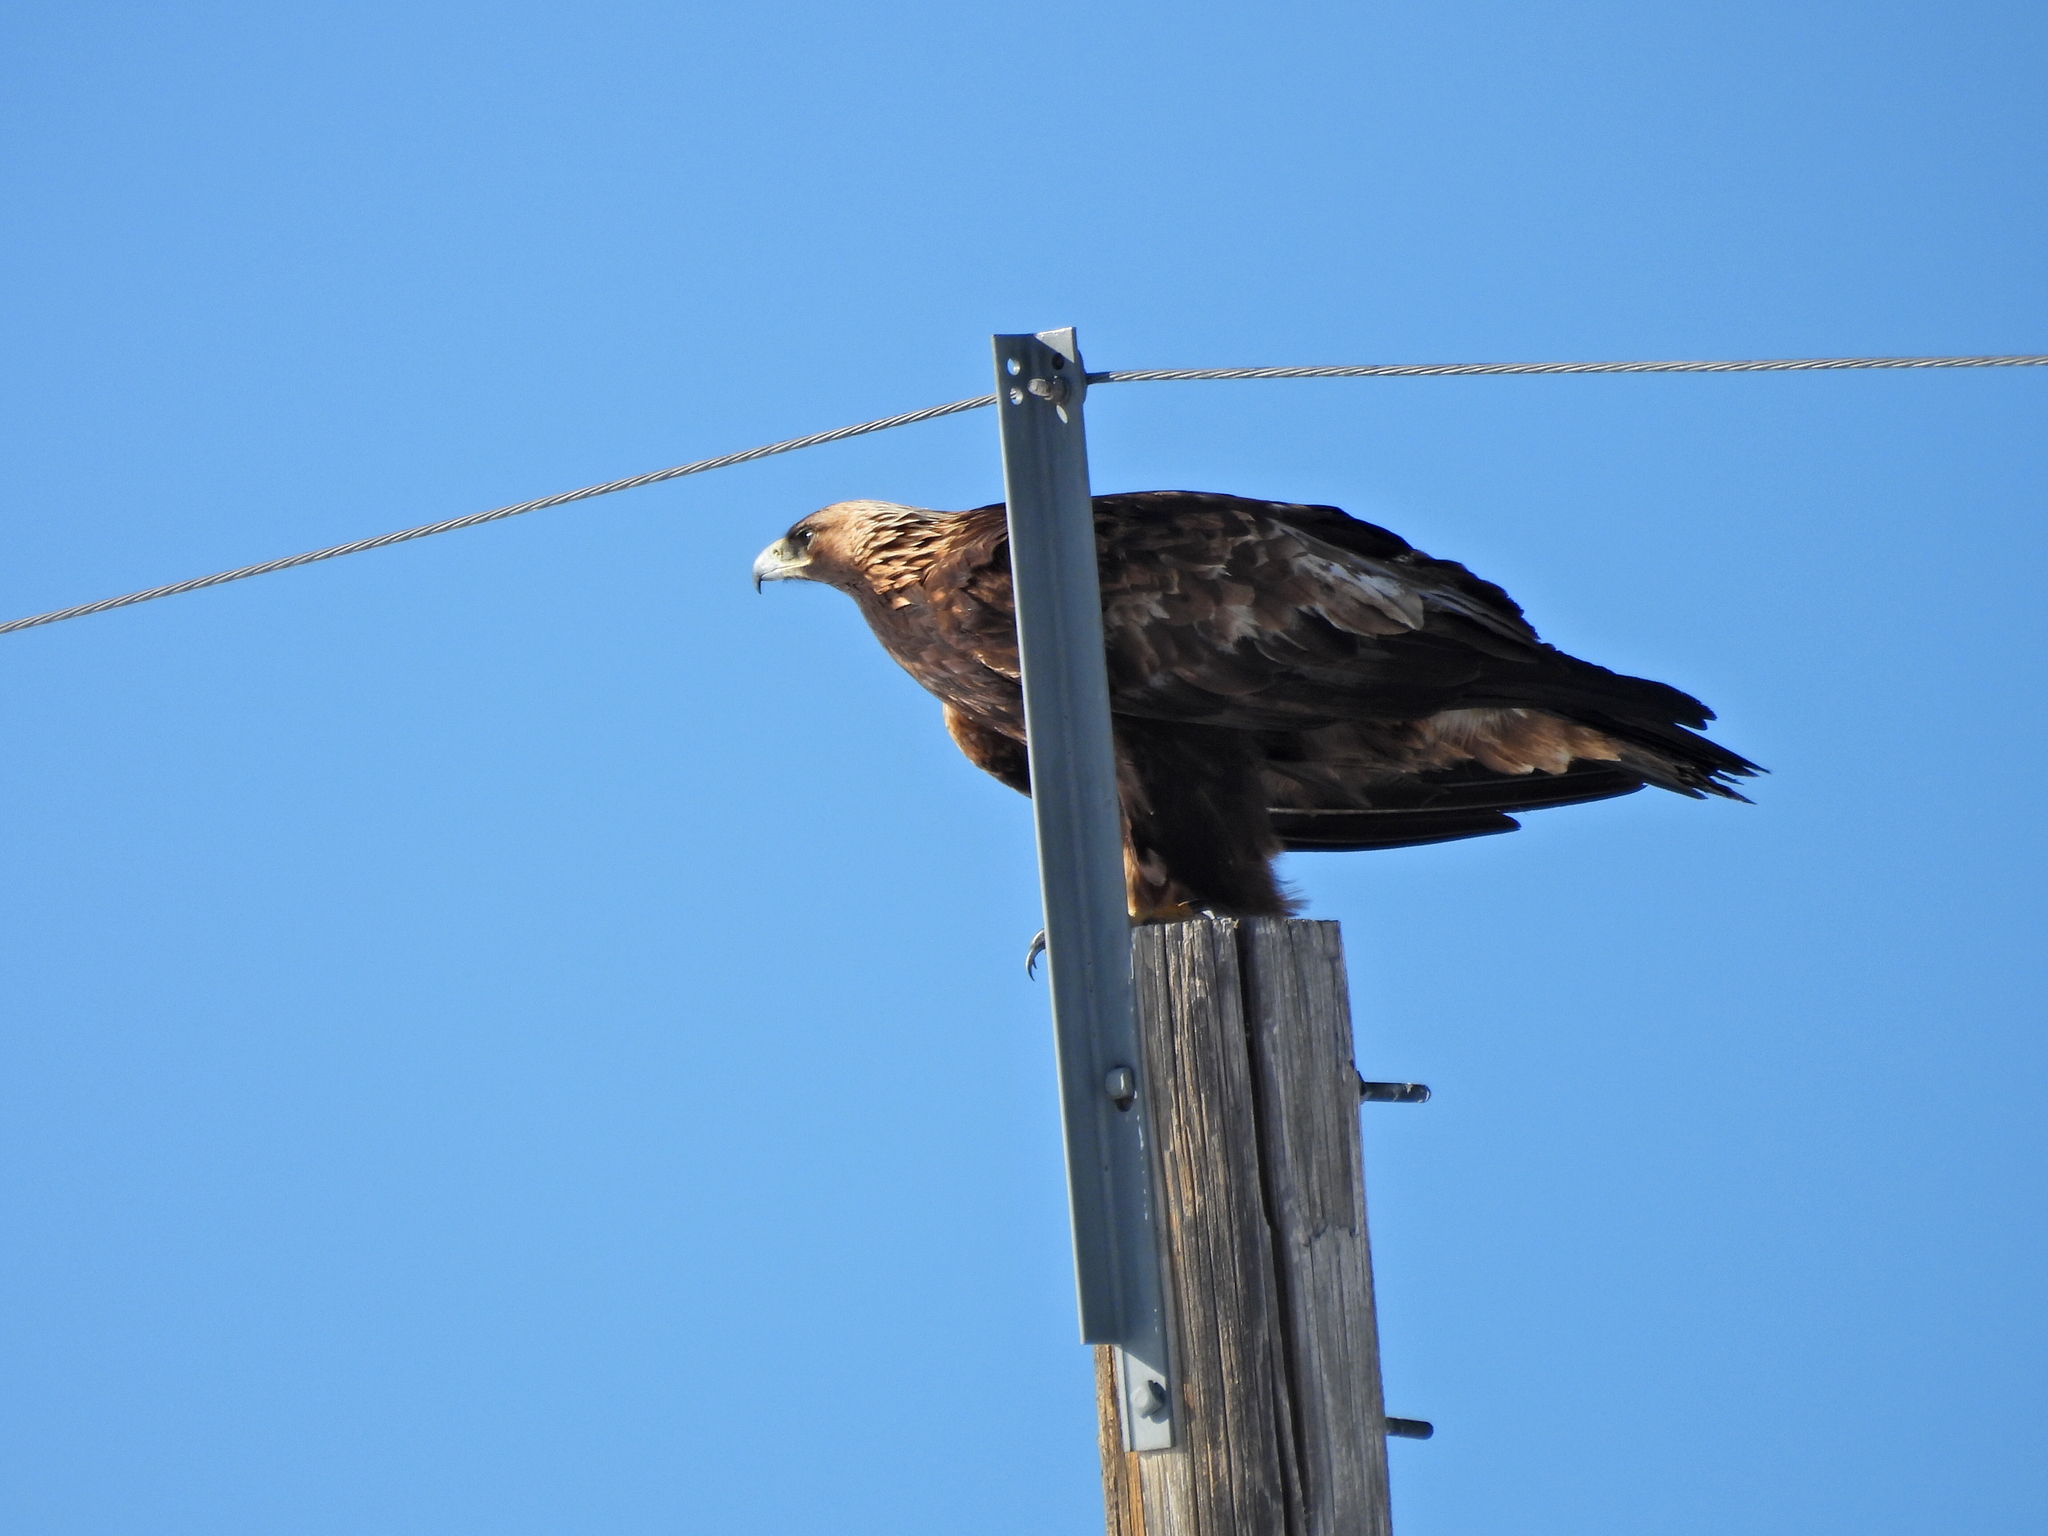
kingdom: Animalia
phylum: Chordata
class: Aves
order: Accipitriformes
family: Accipitridae
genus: Aquila
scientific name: Aquila chrysaetos
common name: Golden eagle
